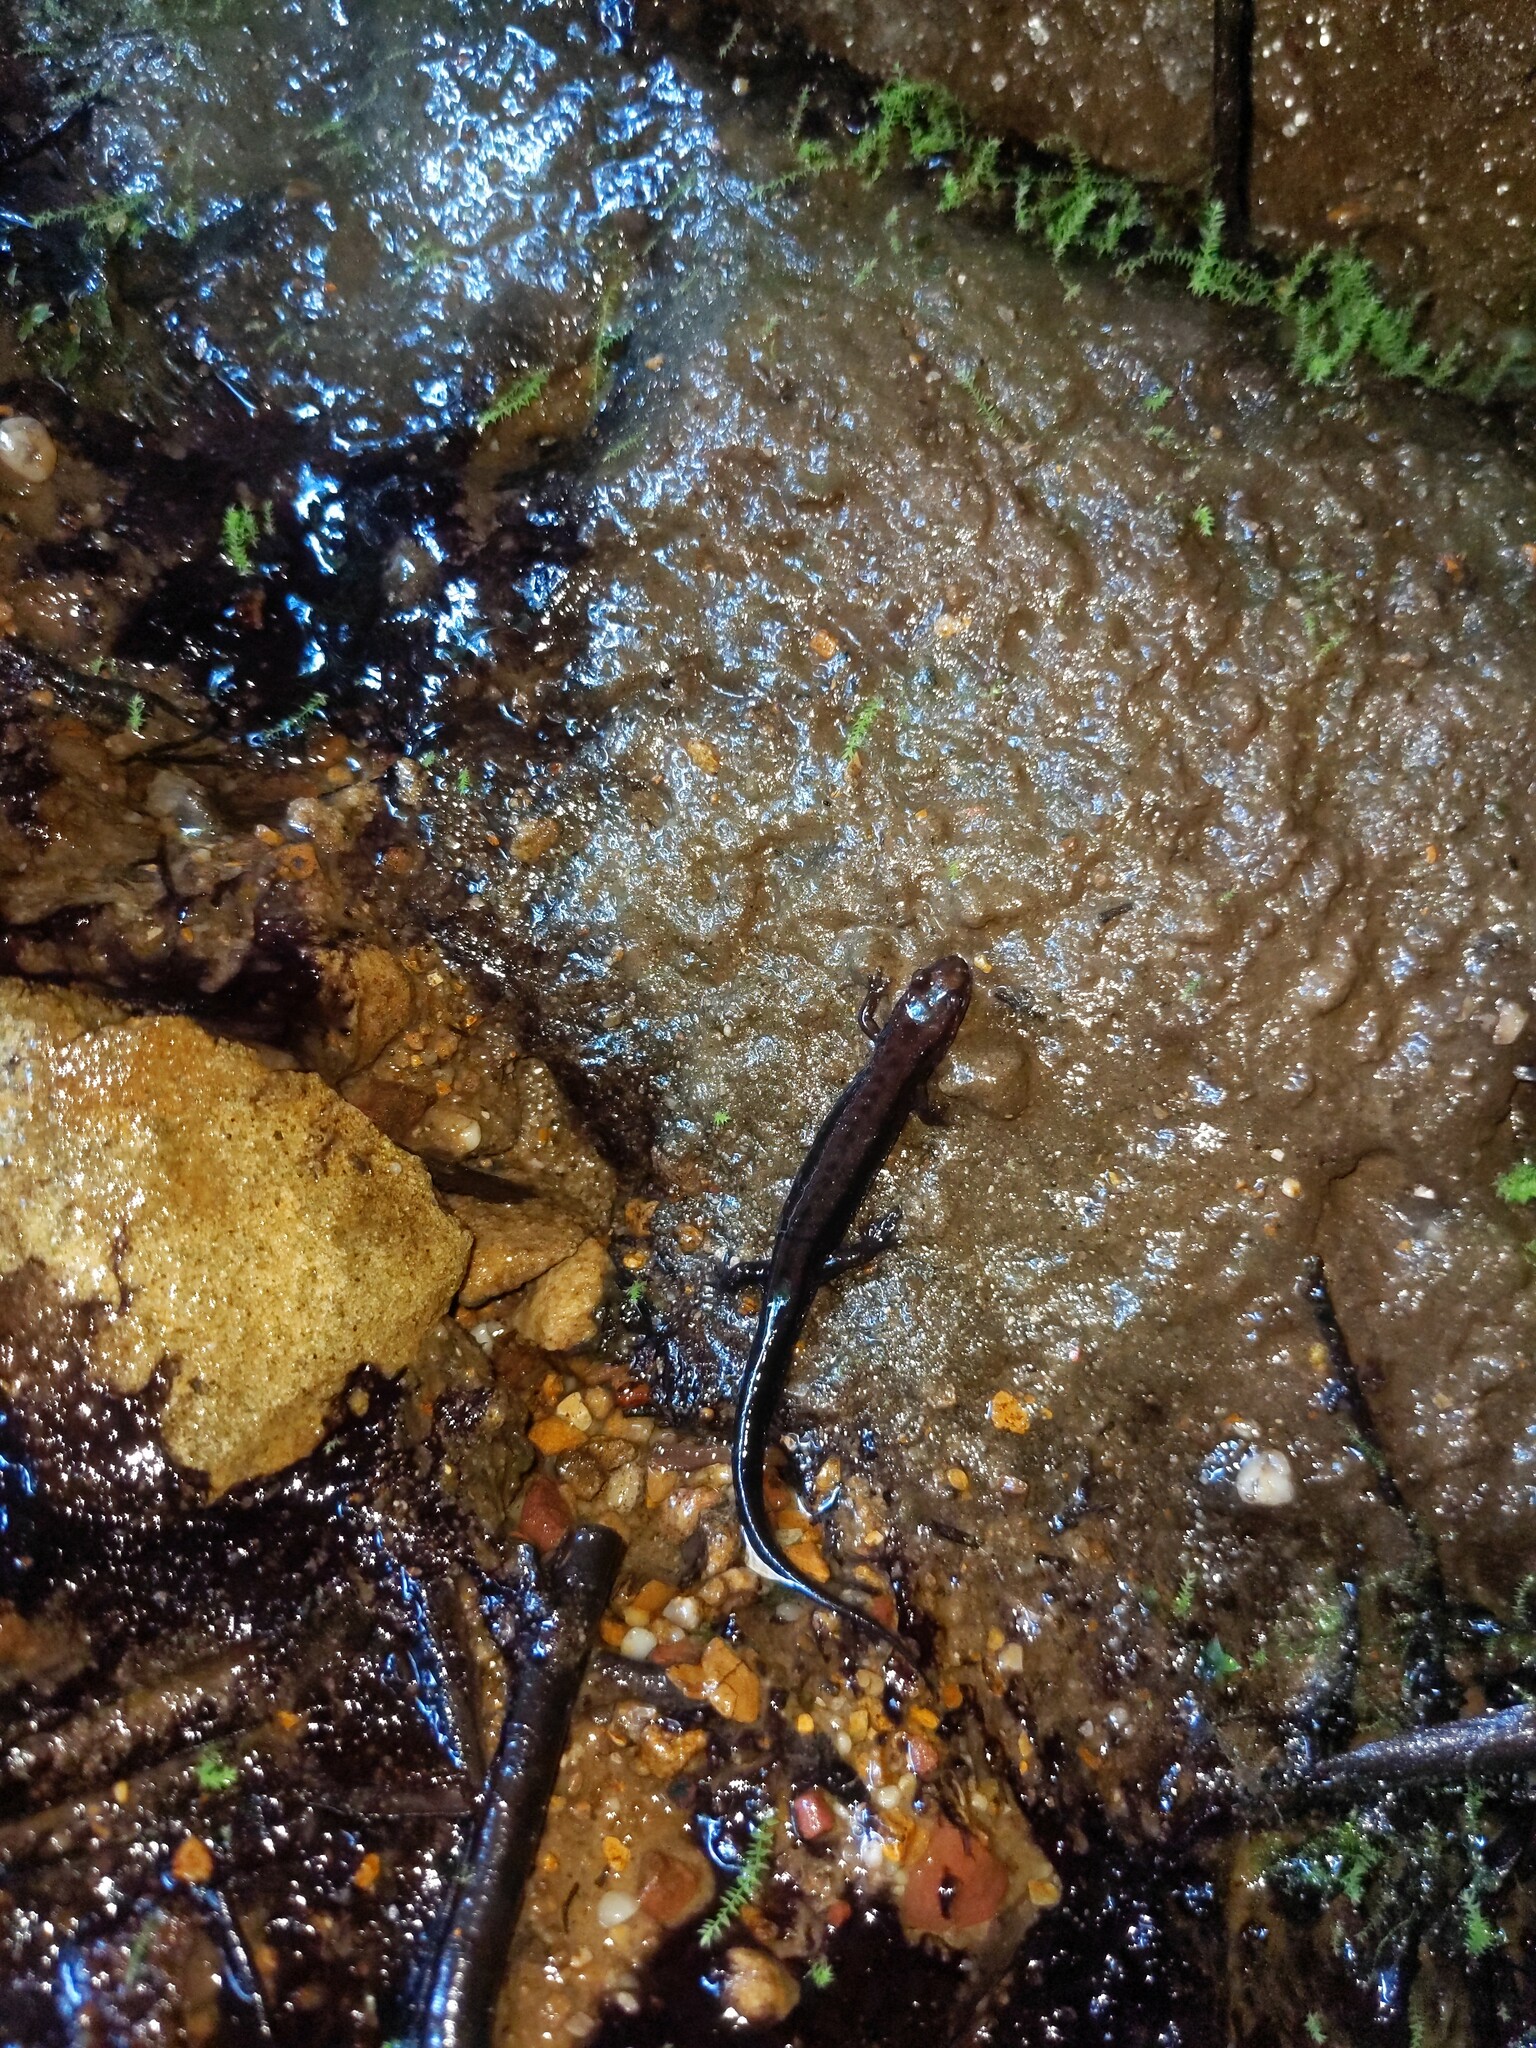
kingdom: Animalia
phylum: Chordata
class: Amphibia
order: Caudata
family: Plethodontidae
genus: Desmognathus
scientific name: Desmognathus ochrophaeus
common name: Allegheny mountain dusky salamander
